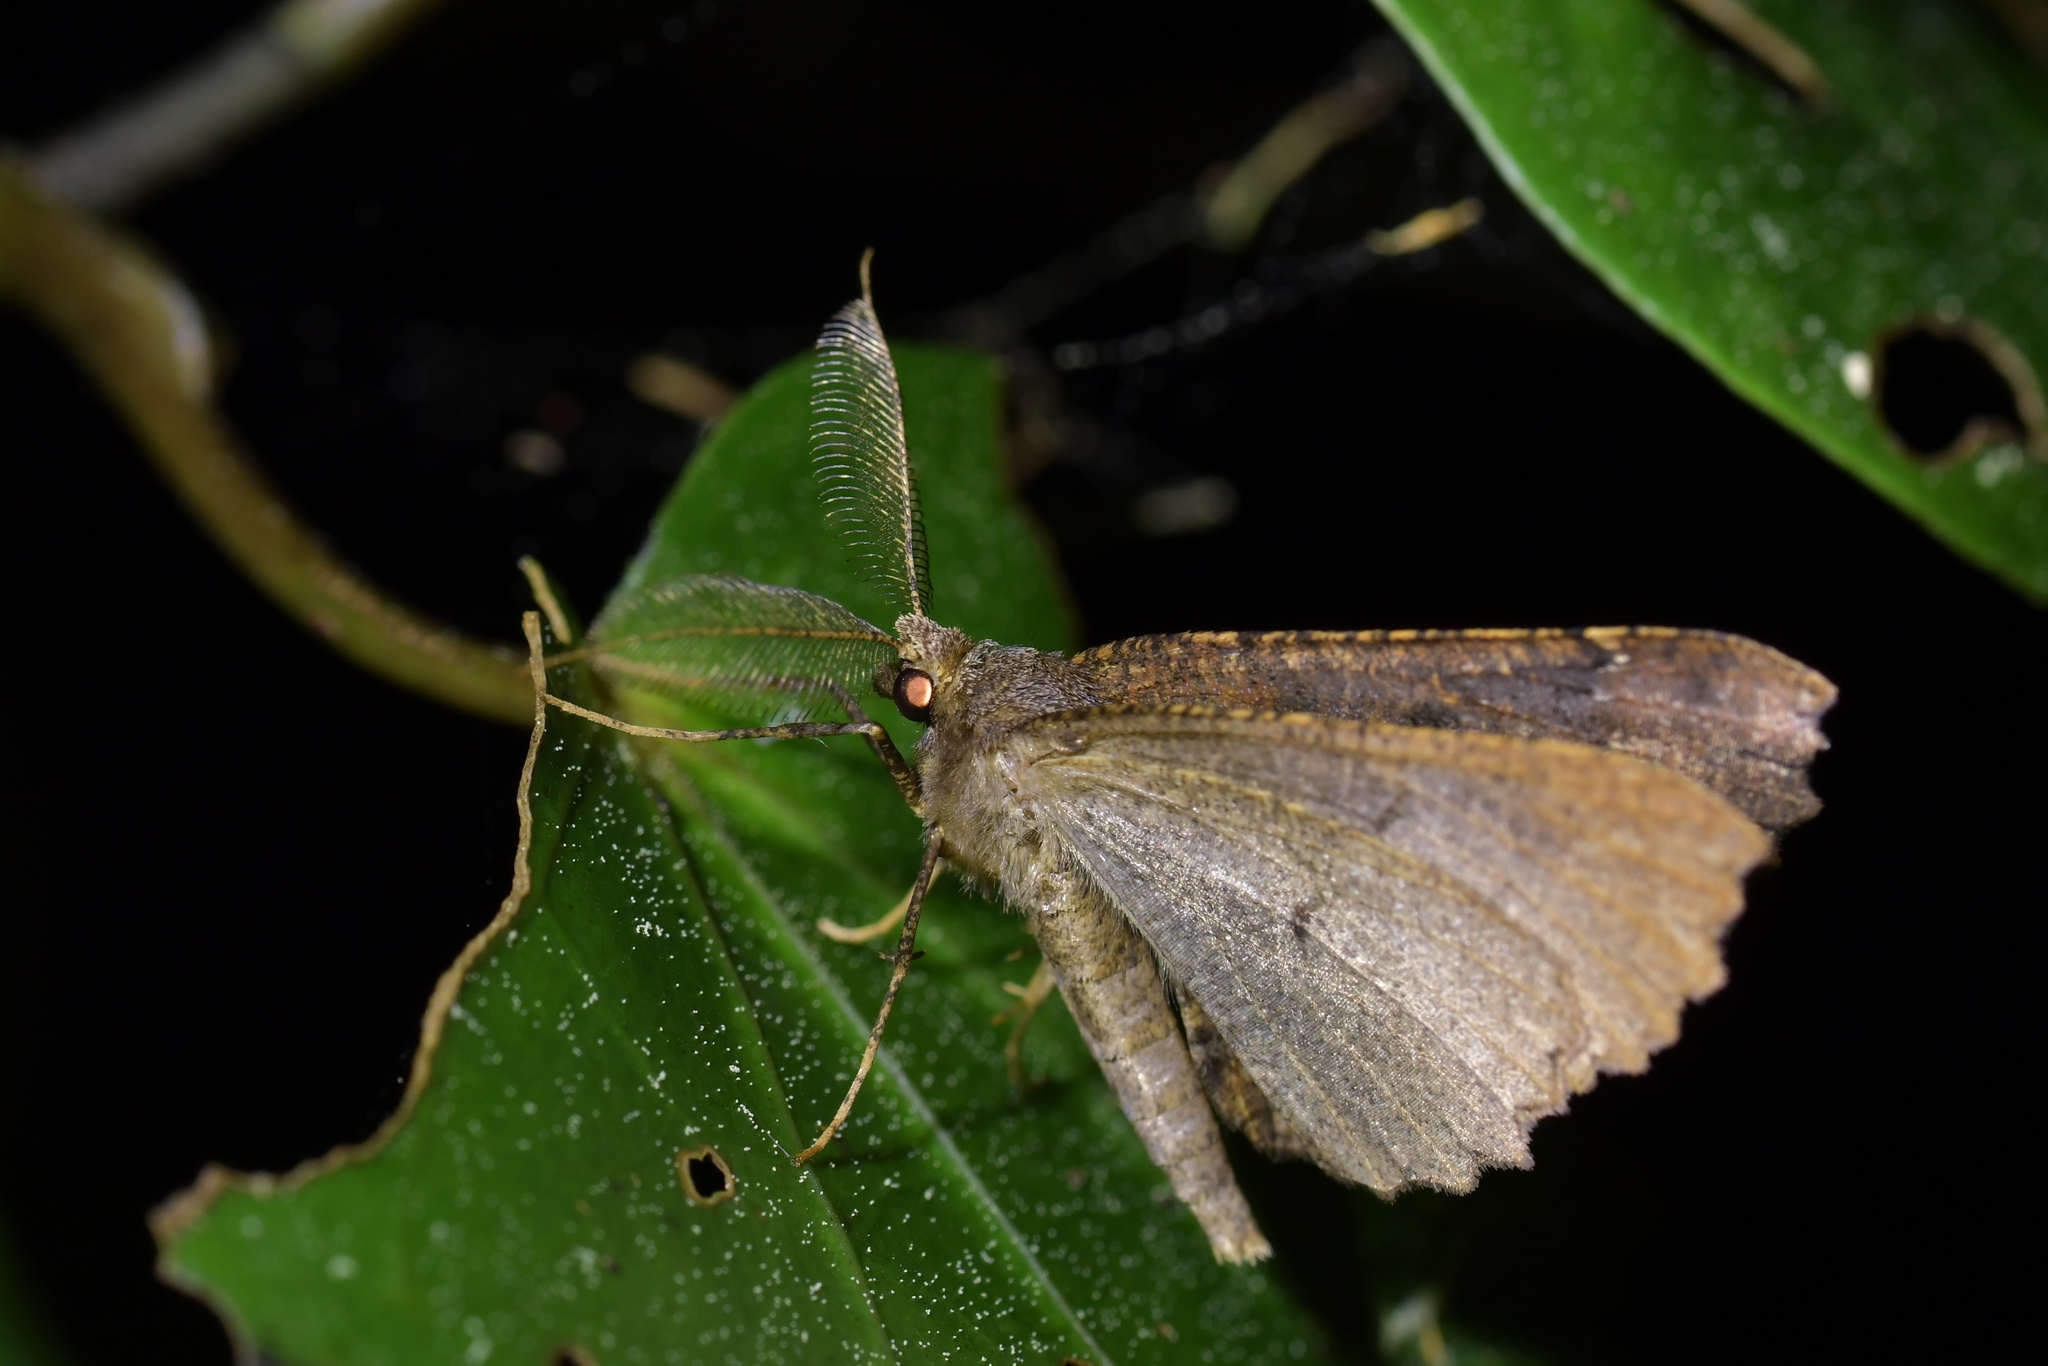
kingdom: Animalia
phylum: Arthropoda
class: Insecta
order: Lepidoptera
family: Geometridae
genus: Cleora
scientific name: Cleora scriptaria
